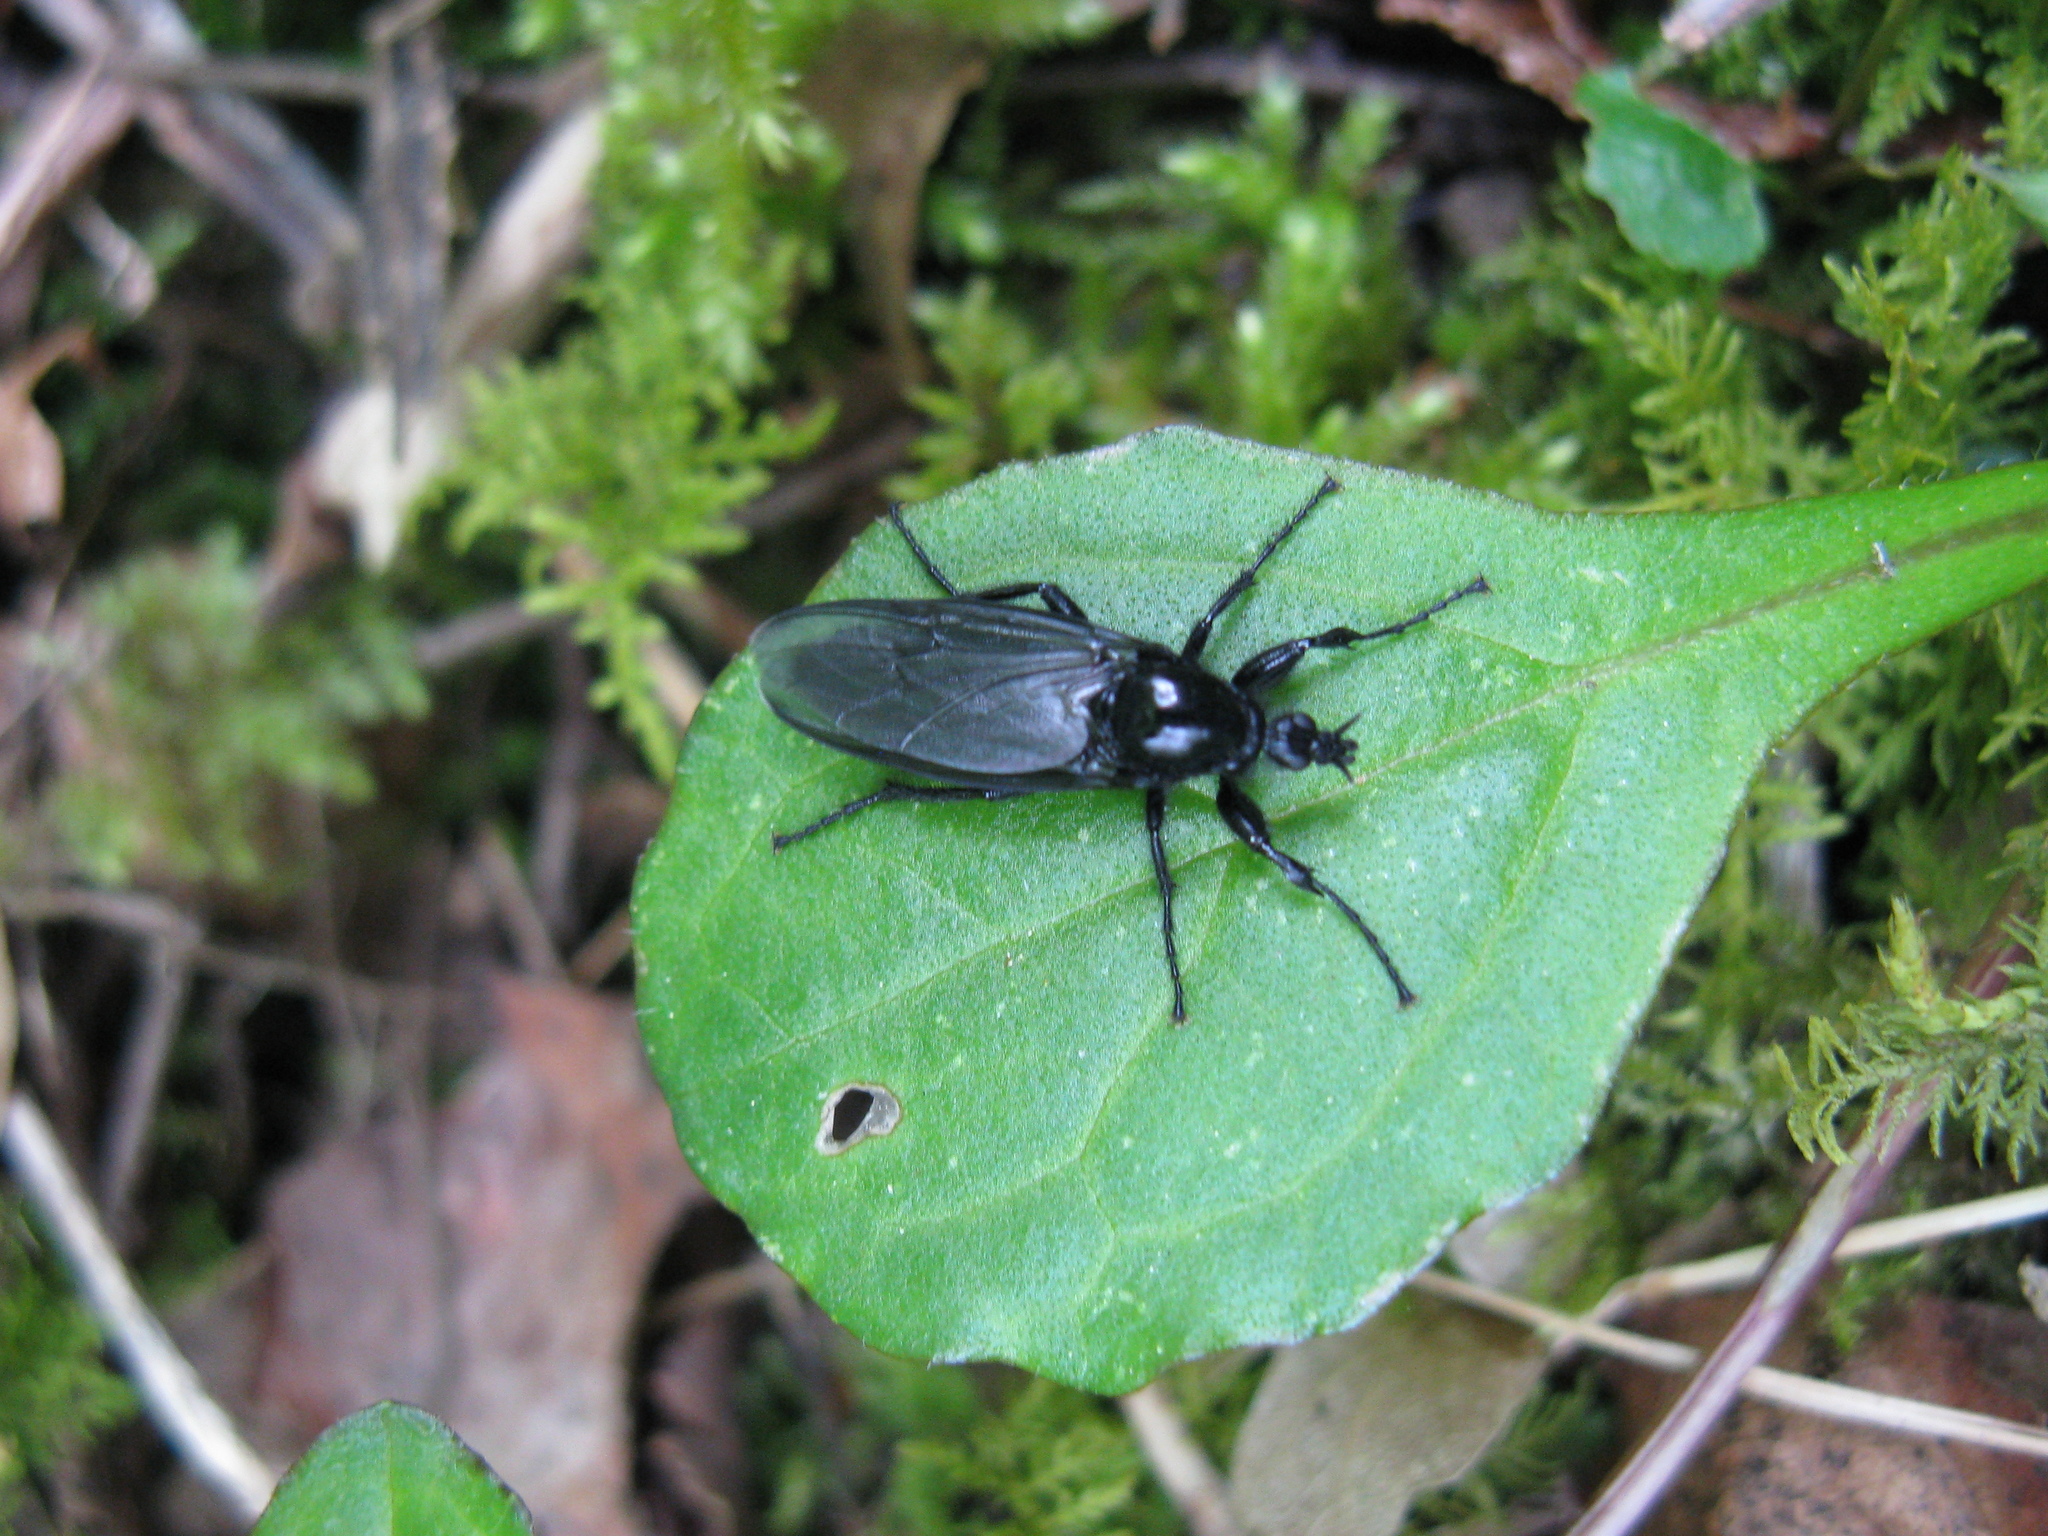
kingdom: Animalia
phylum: Arthropoda
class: Insecta
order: Diptera
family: Bibionidae
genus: Bibio
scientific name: Bibio marci
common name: St marks fly
